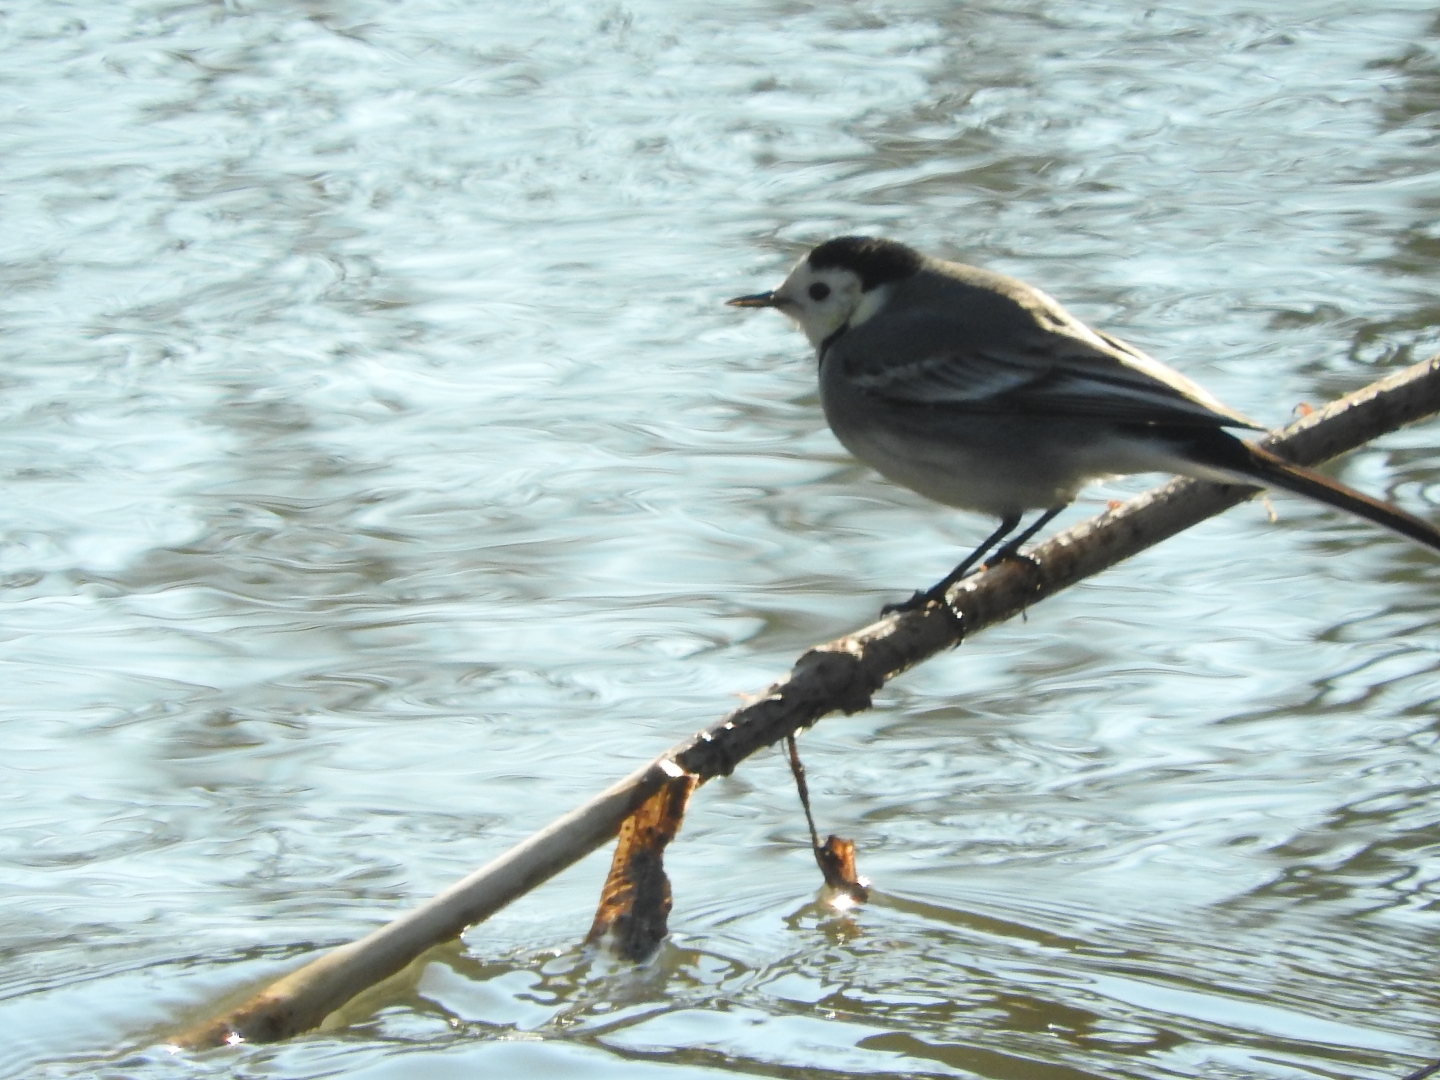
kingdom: Animalia
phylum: Chordata
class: Aves
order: Passeriformes
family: Motacillidae
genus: Motacilla
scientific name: Motacilla alba
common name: White wagtail
